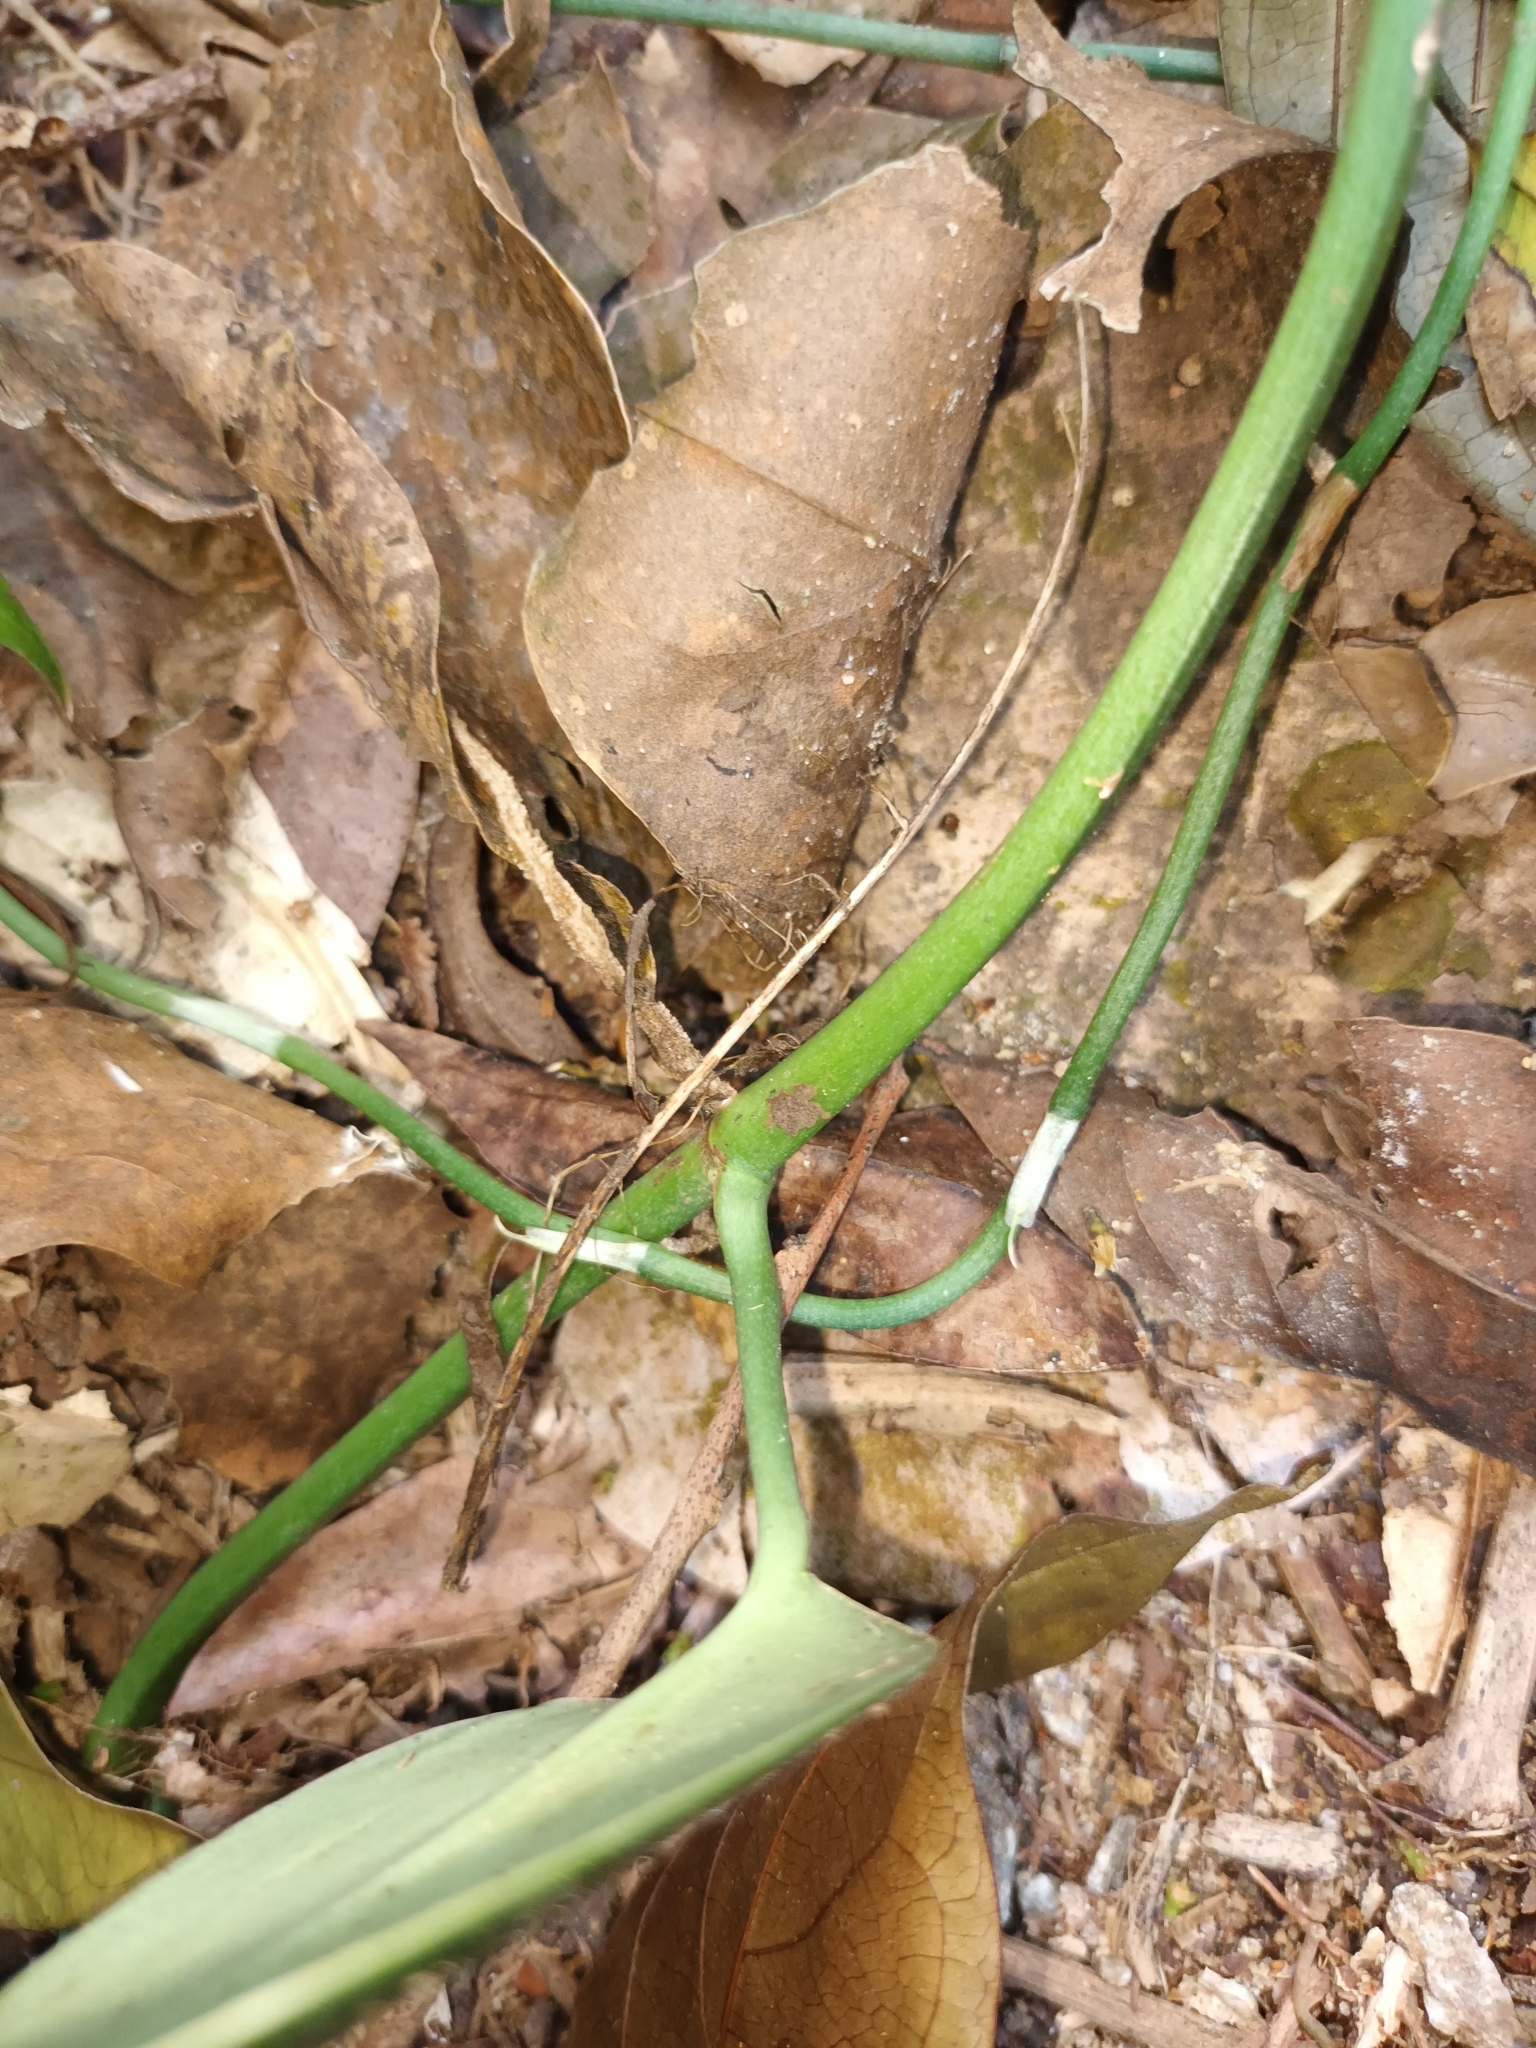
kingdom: Plantae
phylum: Tracheophyta
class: Liliopsida
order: Alismatales
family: Araceae
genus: Scindapsus
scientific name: Scindapsus perakensis
